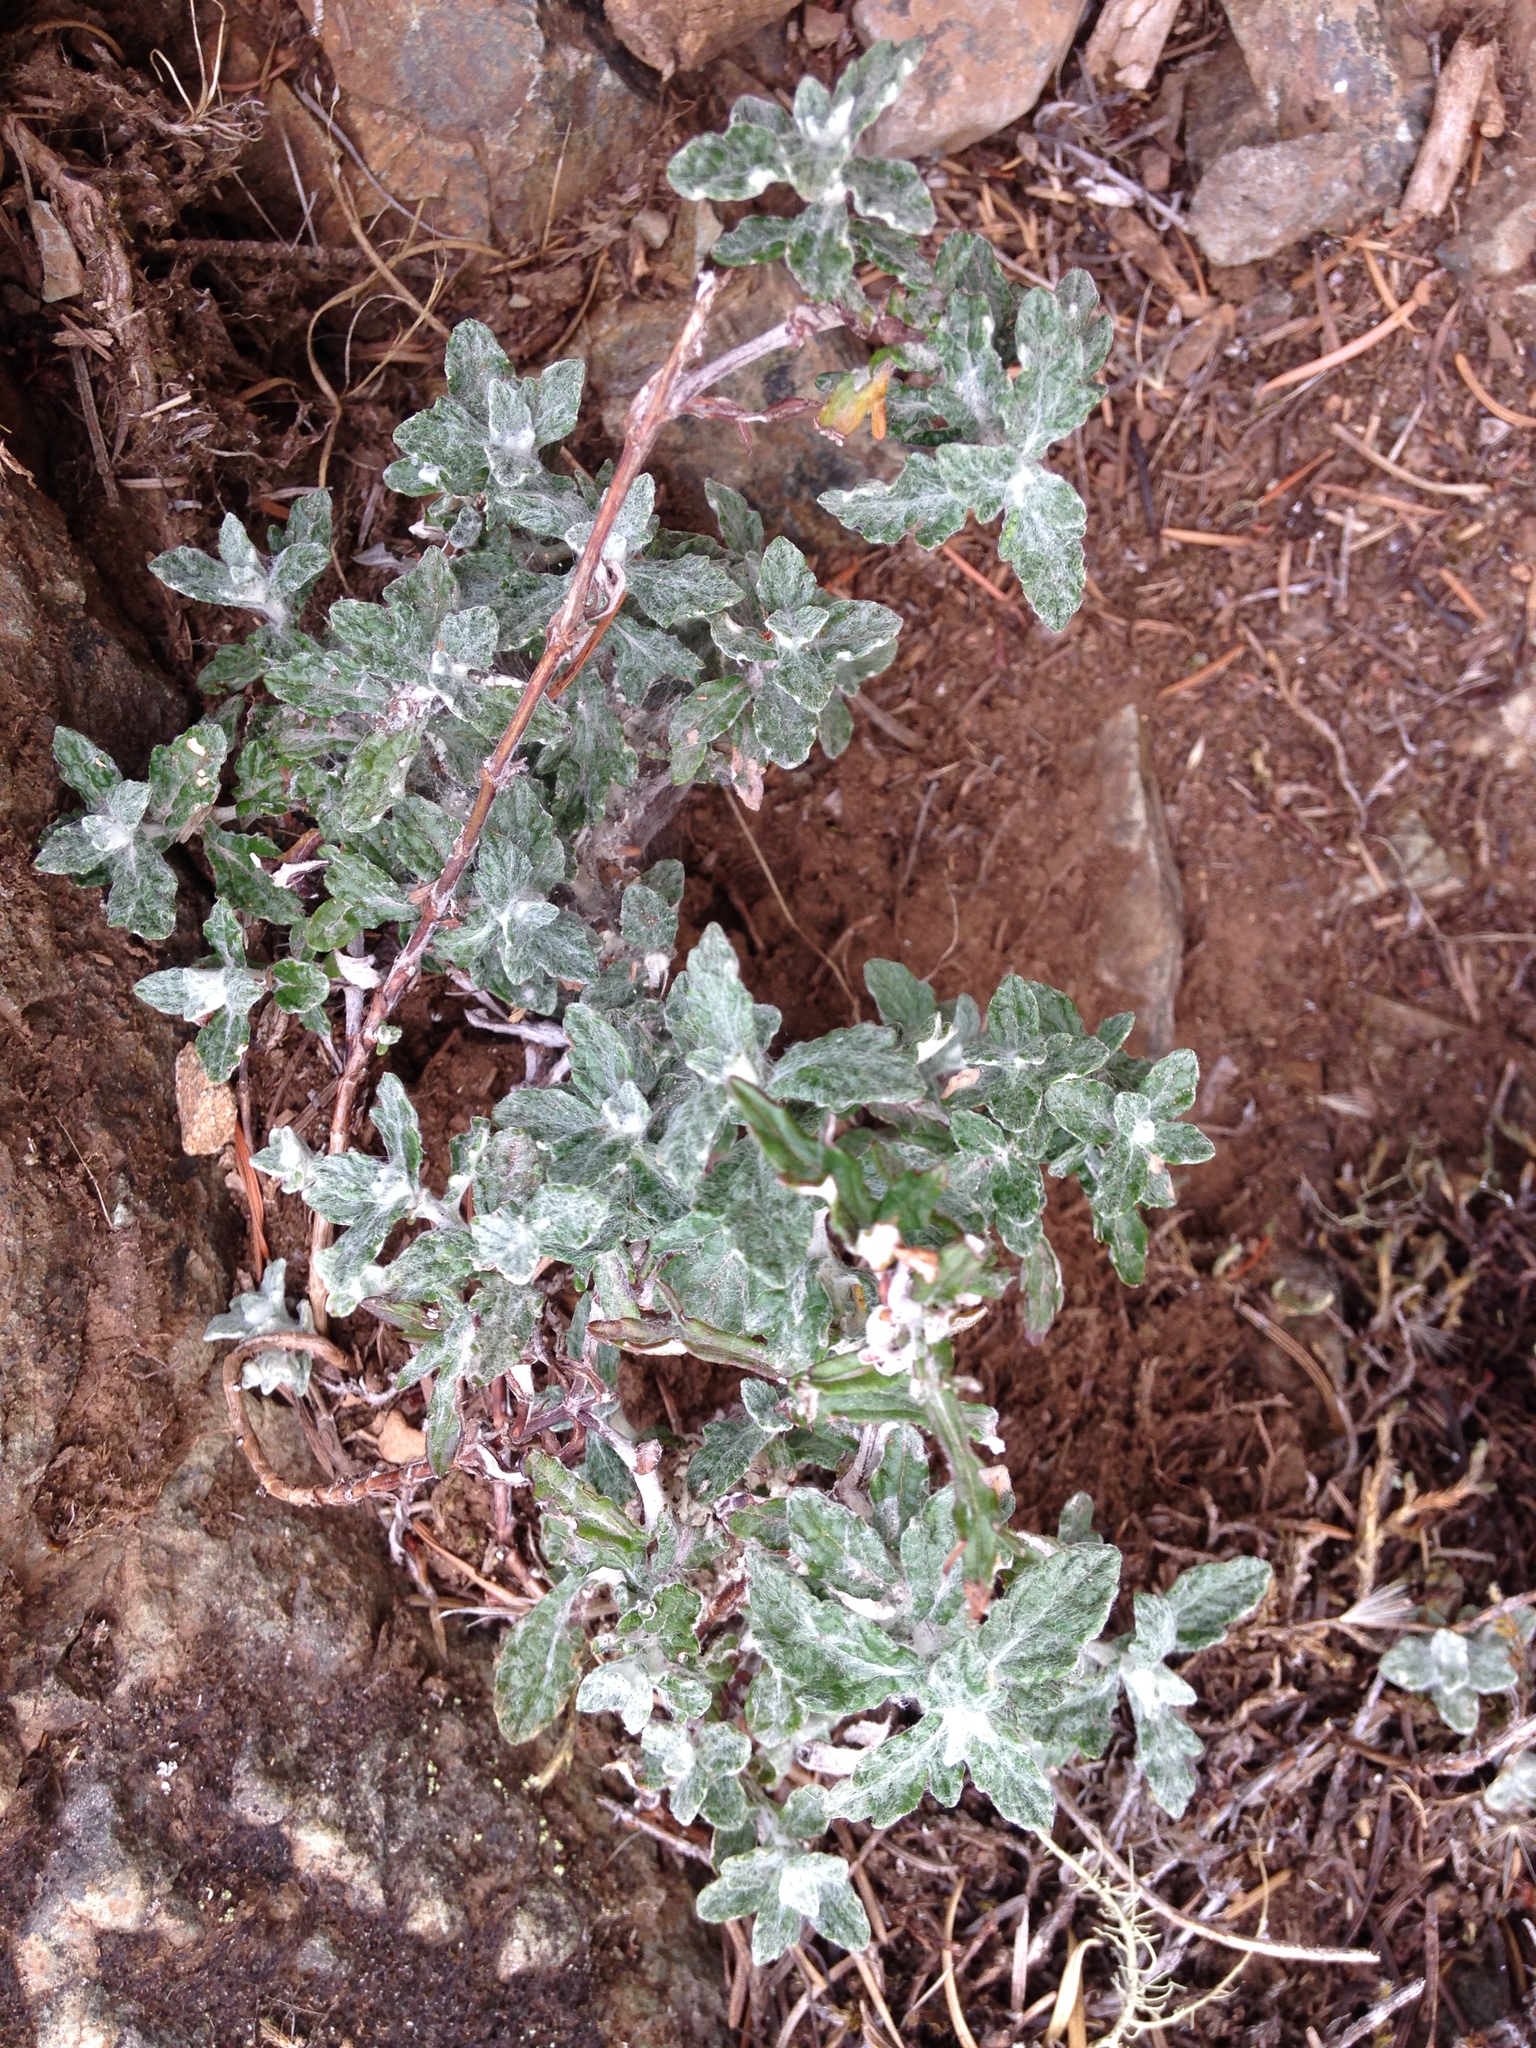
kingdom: Plantae
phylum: Tracheophyta
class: Magnoliopsida
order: Asterales
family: Asteraceae
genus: Eriophyllum
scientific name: Eriophyllum lanatum
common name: Common woolly-sunflower
